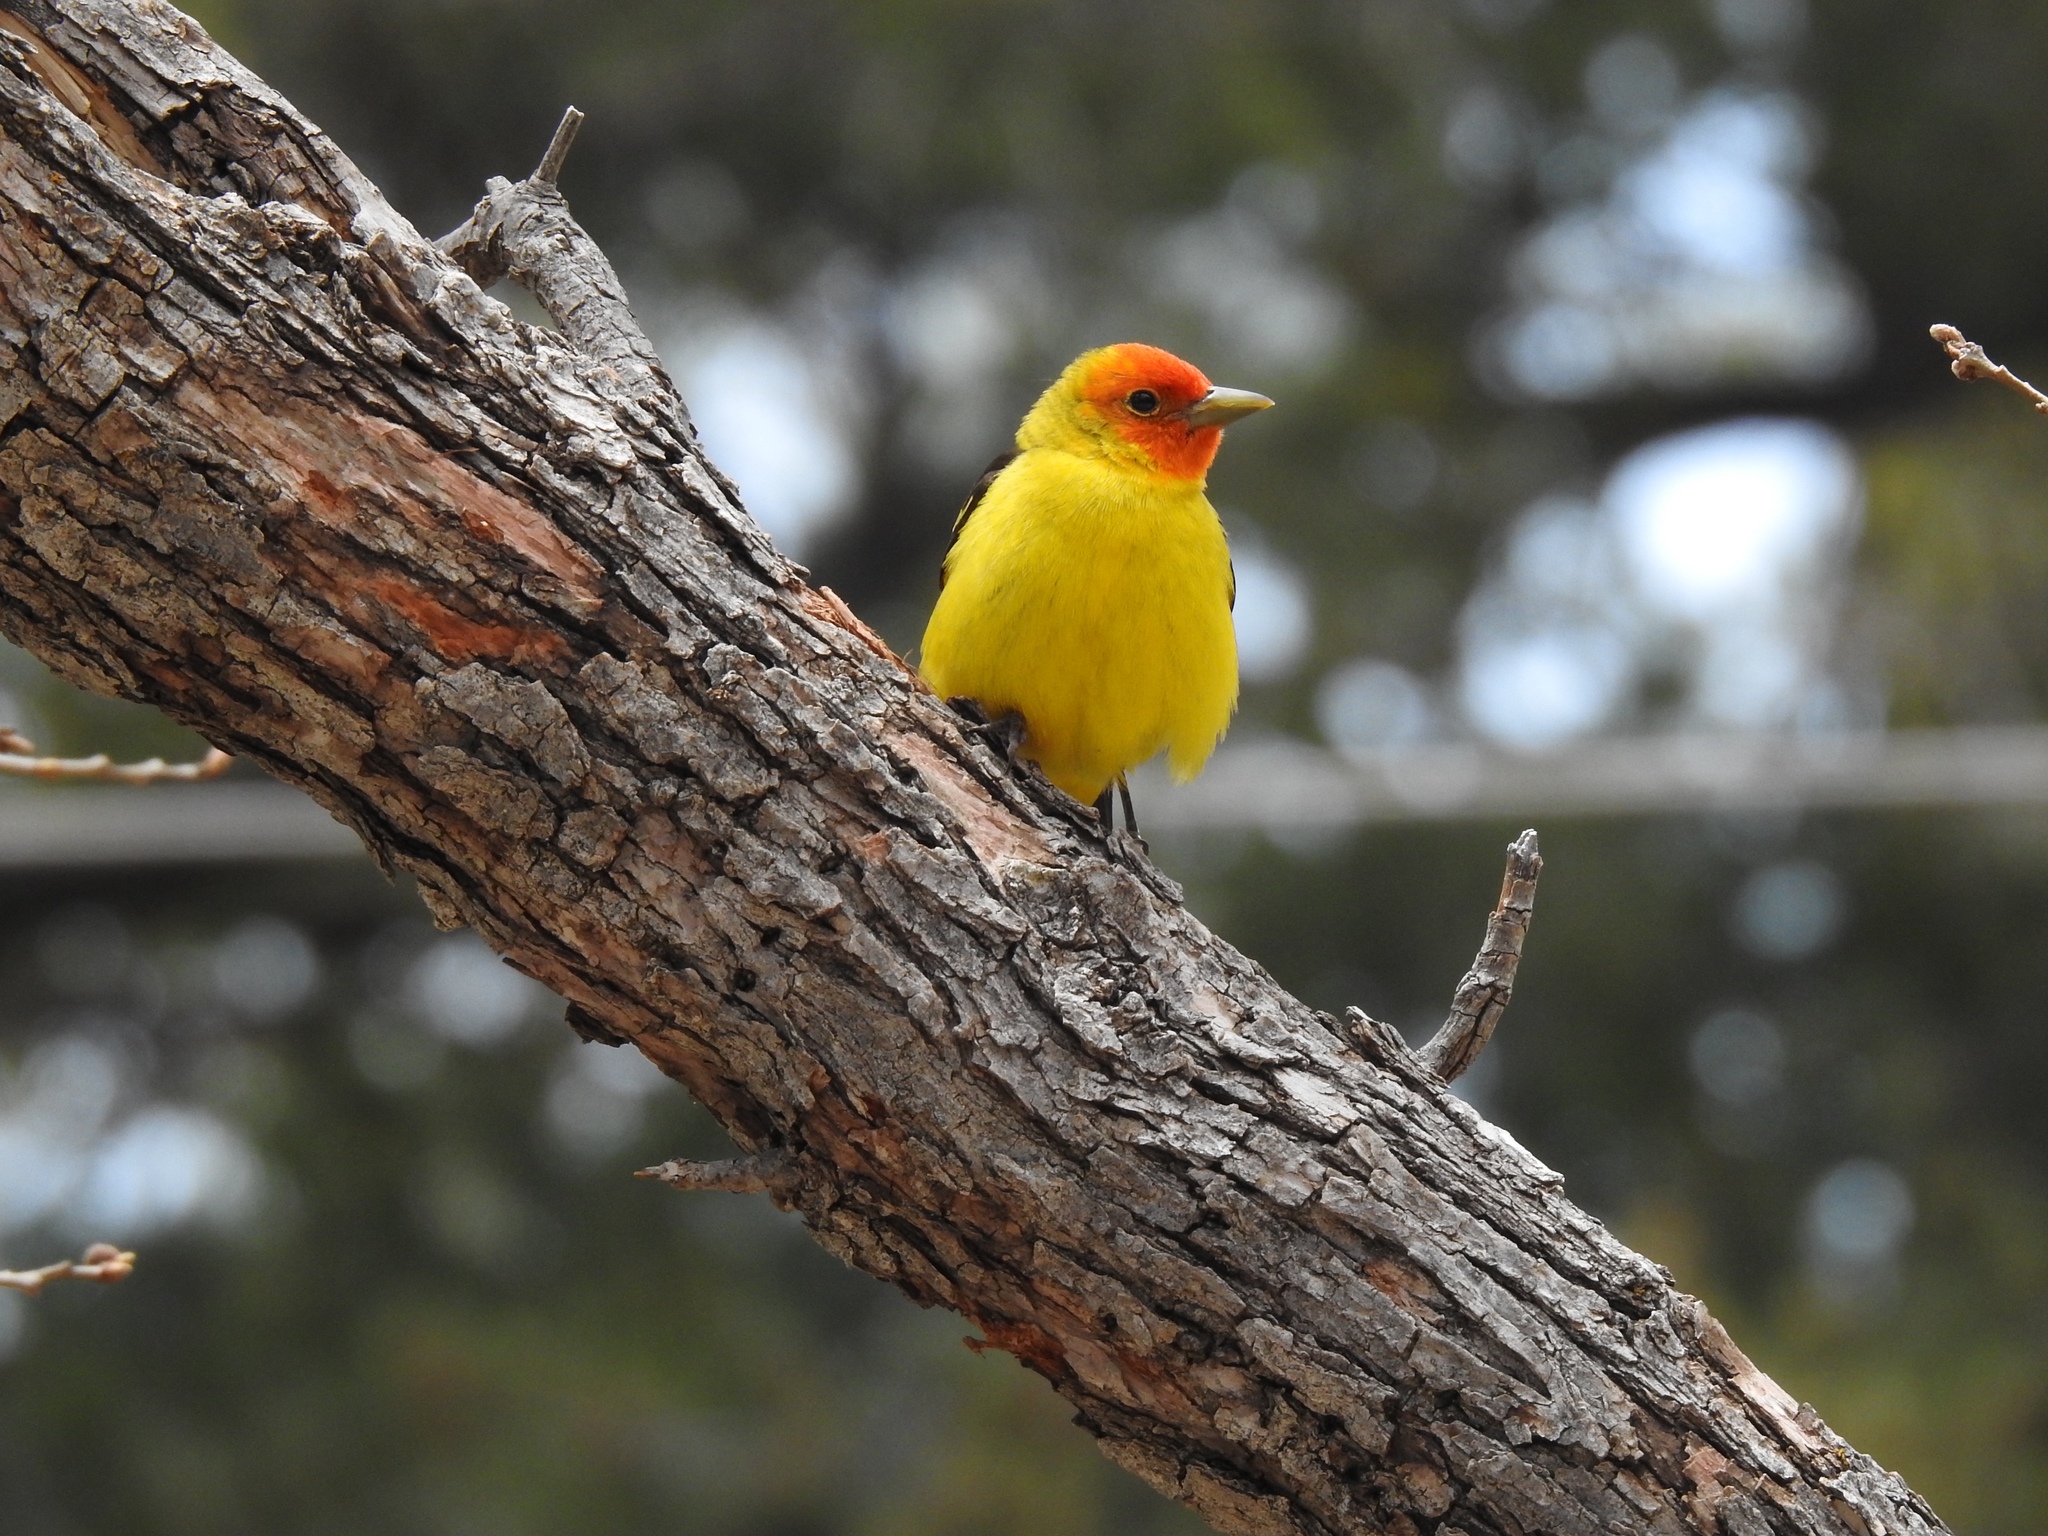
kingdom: Animalia
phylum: Chordata
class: Aves
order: Passeriformes
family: Cardinalidae
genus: Piranga
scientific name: Piranga ludoviciana
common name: Western tanager
